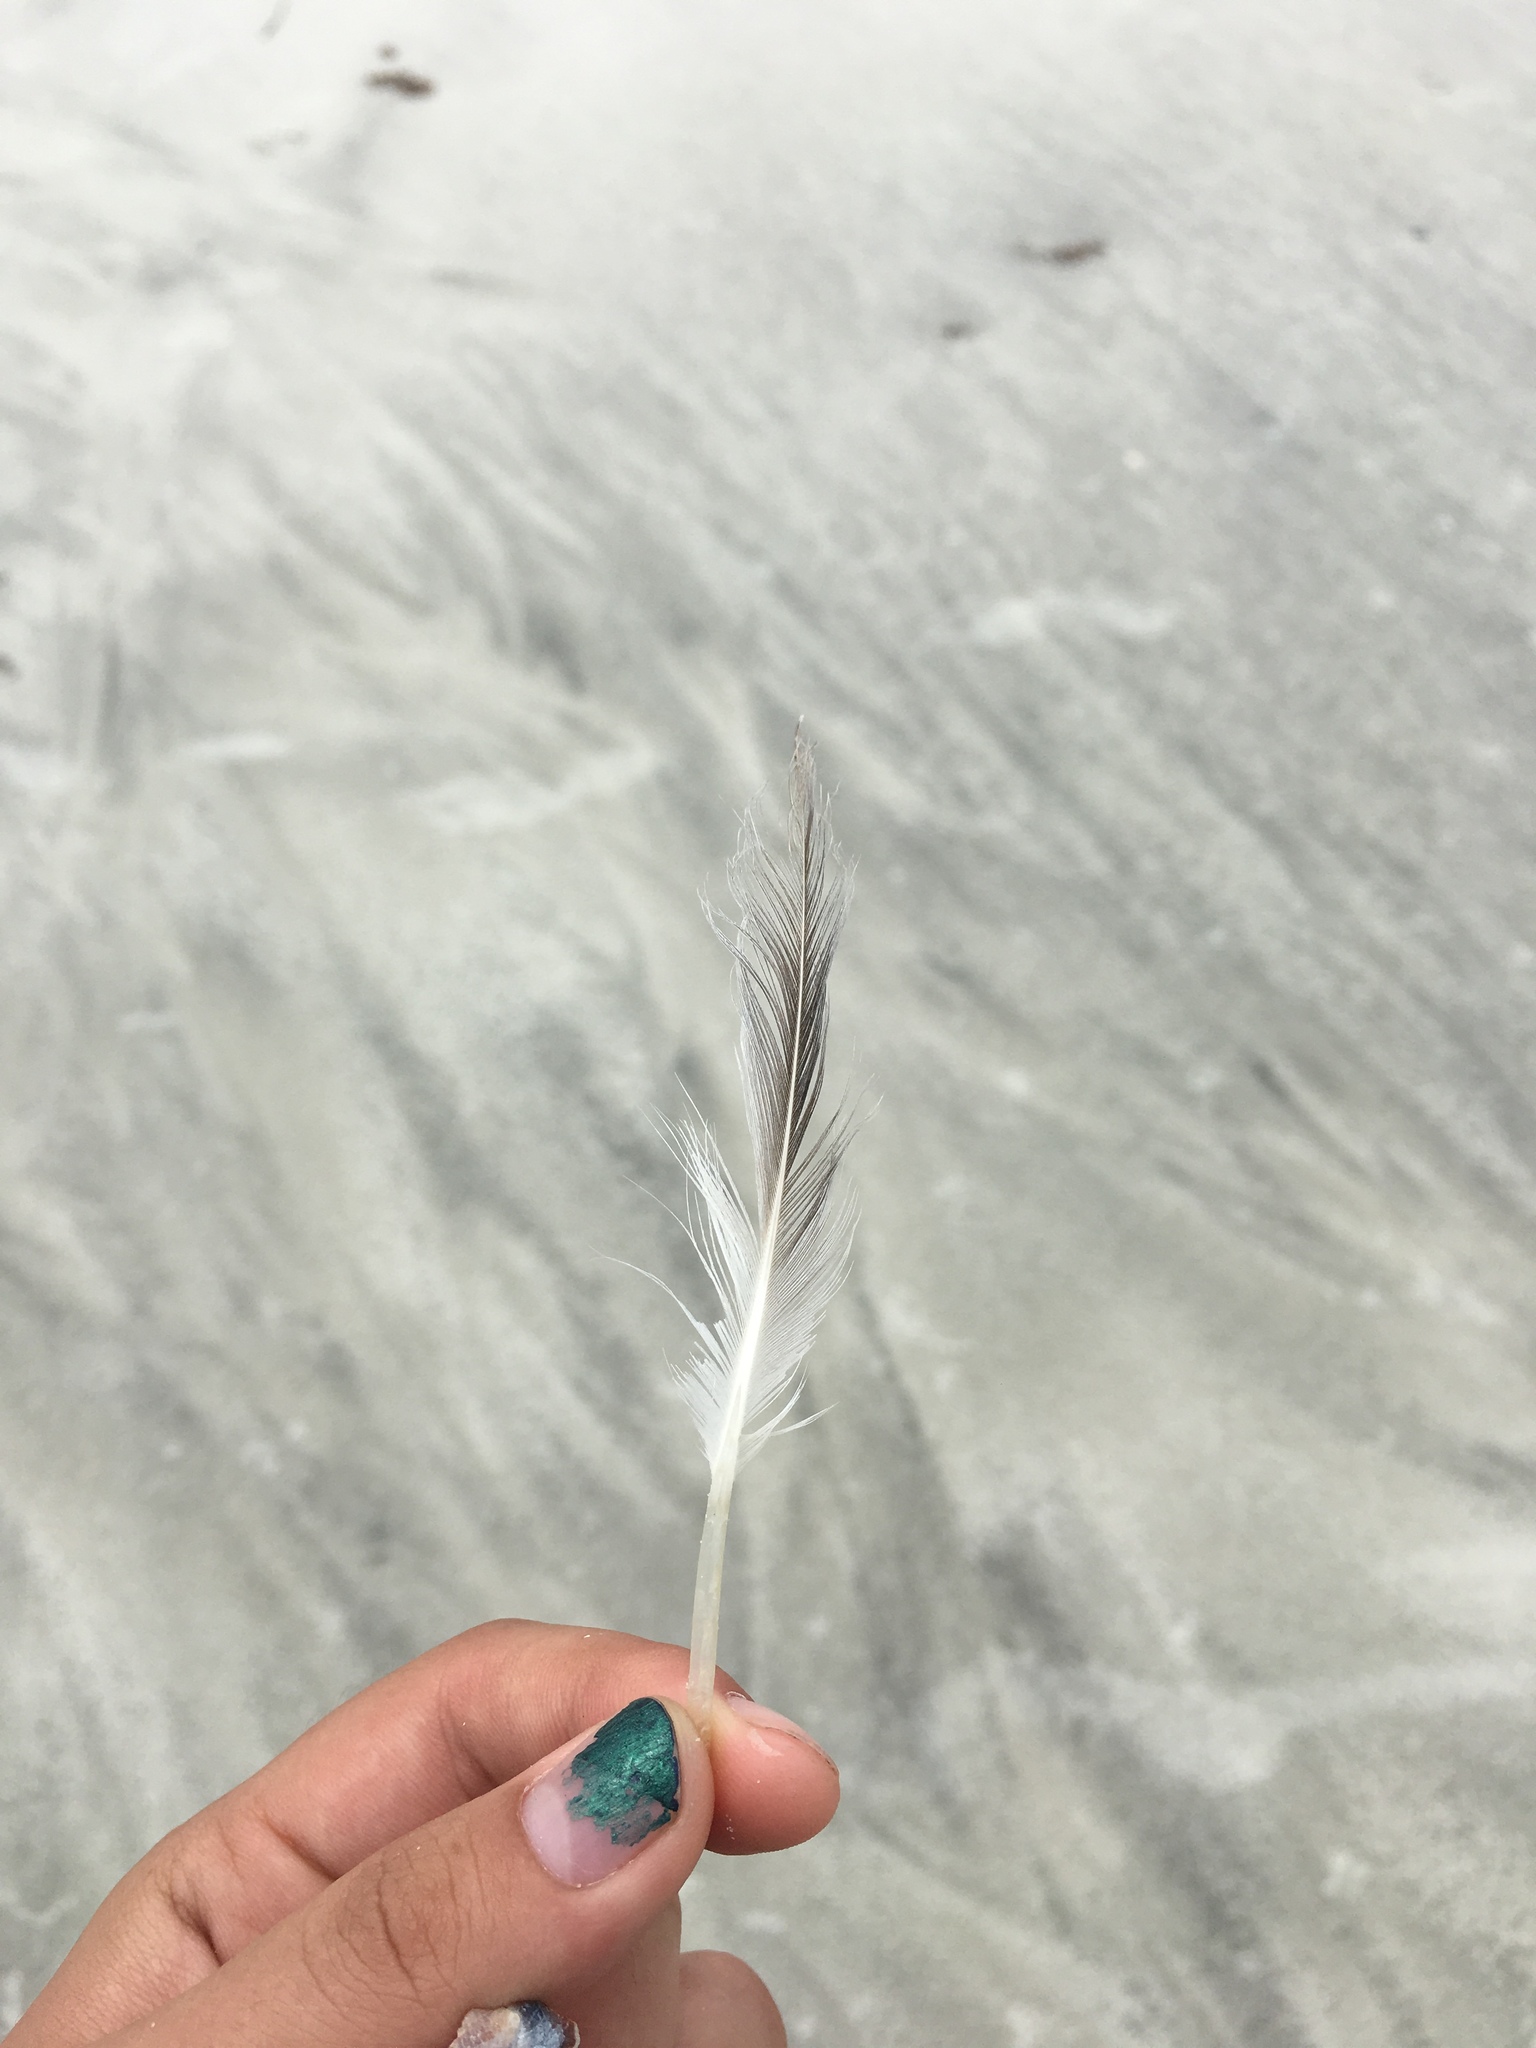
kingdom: Animalia
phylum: Chordata
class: Aves
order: Charadriiformes
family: Laridae
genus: Thalasseus
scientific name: Thalasseus maximus
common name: Royal tern
